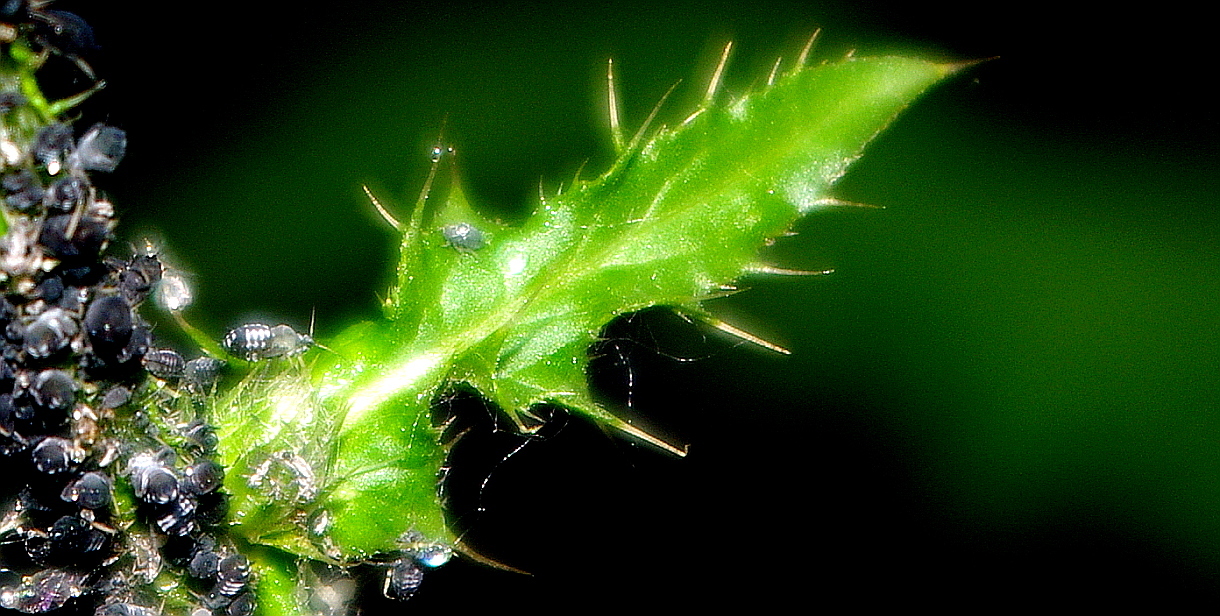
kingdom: Plantae
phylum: Tracheophyta
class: Magnoliopsida
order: Asterales
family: Asteraceae
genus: Carduus
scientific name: Carduus crispus
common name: Welted thistle
